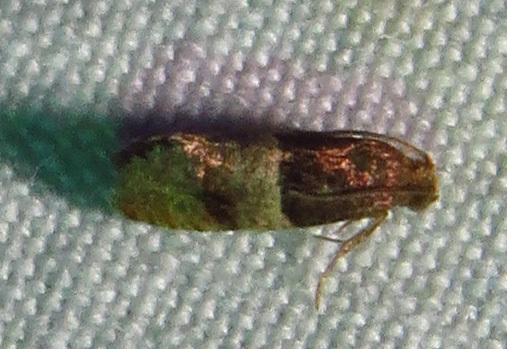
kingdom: Animalia
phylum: Arthropoda
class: Insecta
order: Lepidoptera
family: Tortricidae
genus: Larisa
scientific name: Larisa subsolana
